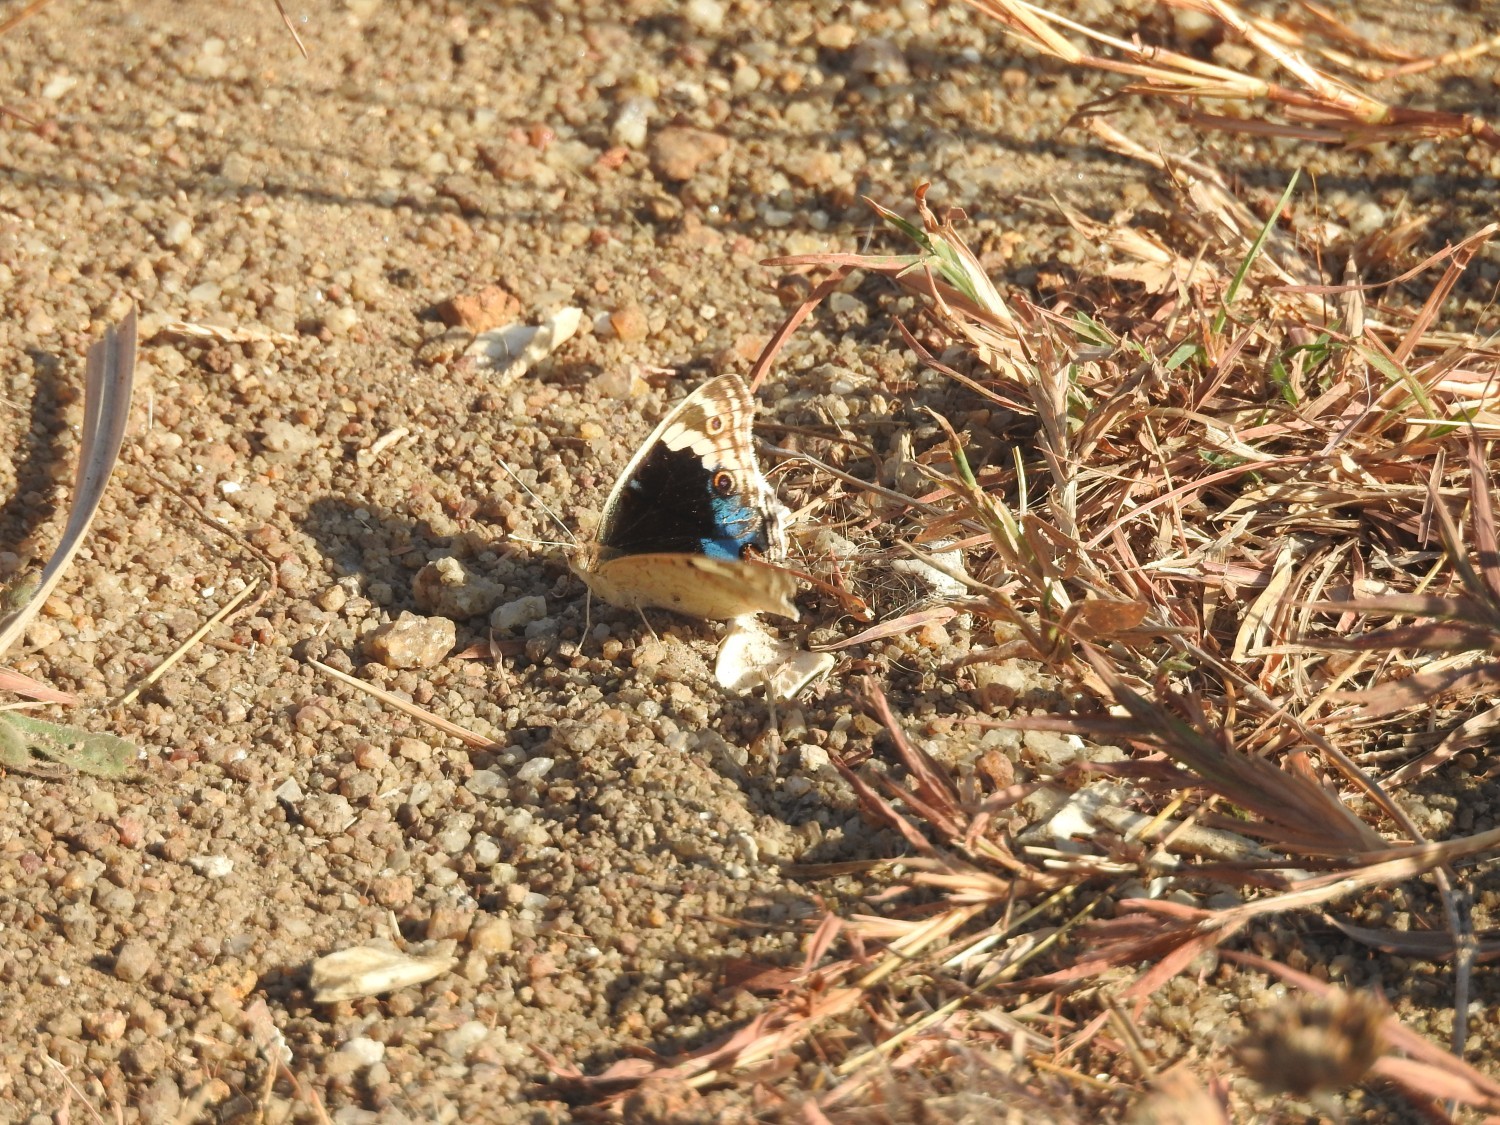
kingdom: Animalia
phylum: Arthropoda
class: Insecta
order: Lepidoptera
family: Nymphalidae
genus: Junonia
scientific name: Junonia orithya
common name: Blue pansy
